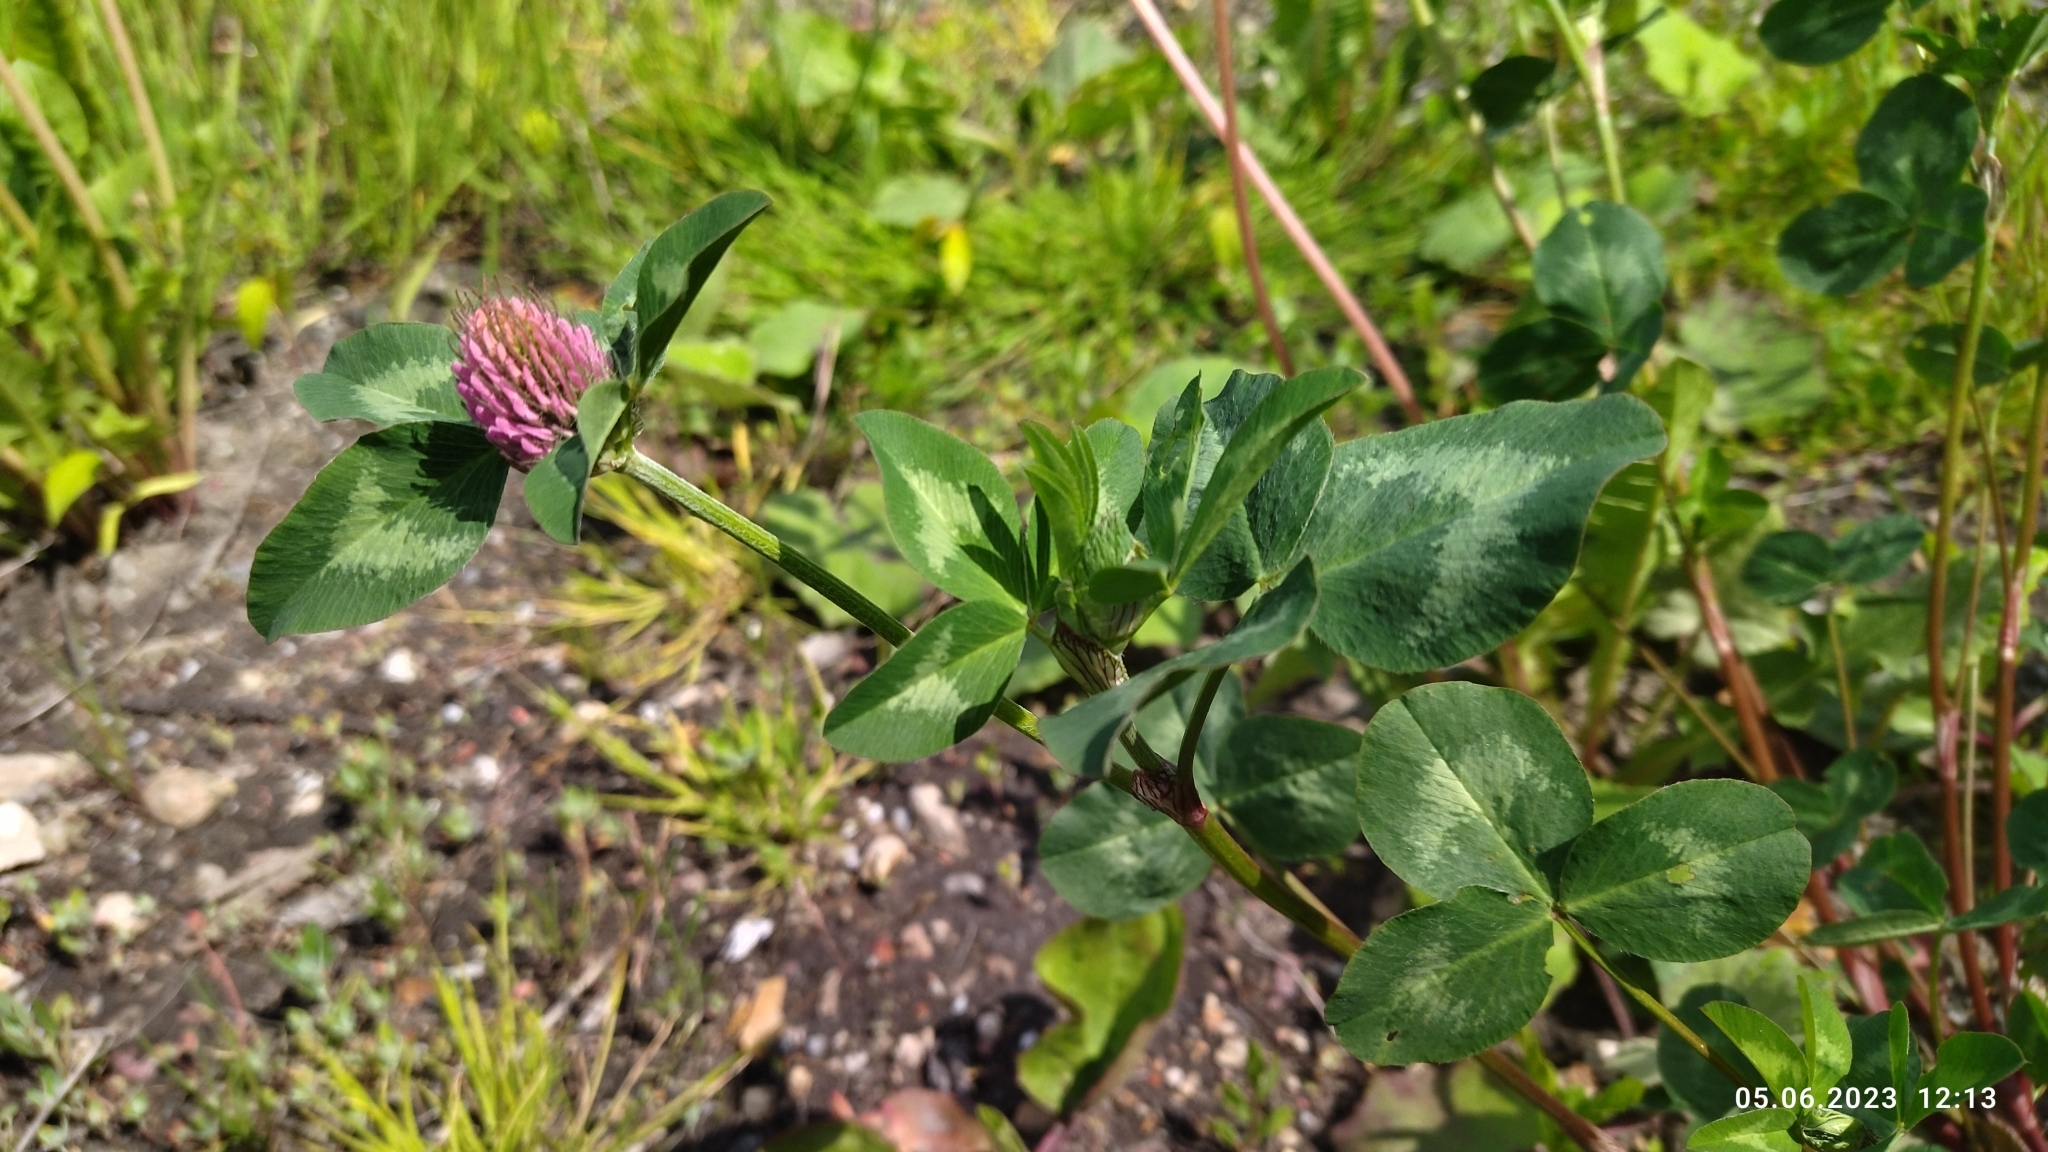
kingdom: Plantae
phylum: Tracheophyta
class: Magnoliopsida
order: Fabales
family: Fabaceae
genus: Trifolium
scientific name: Trifolium pratense
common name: Red clover
